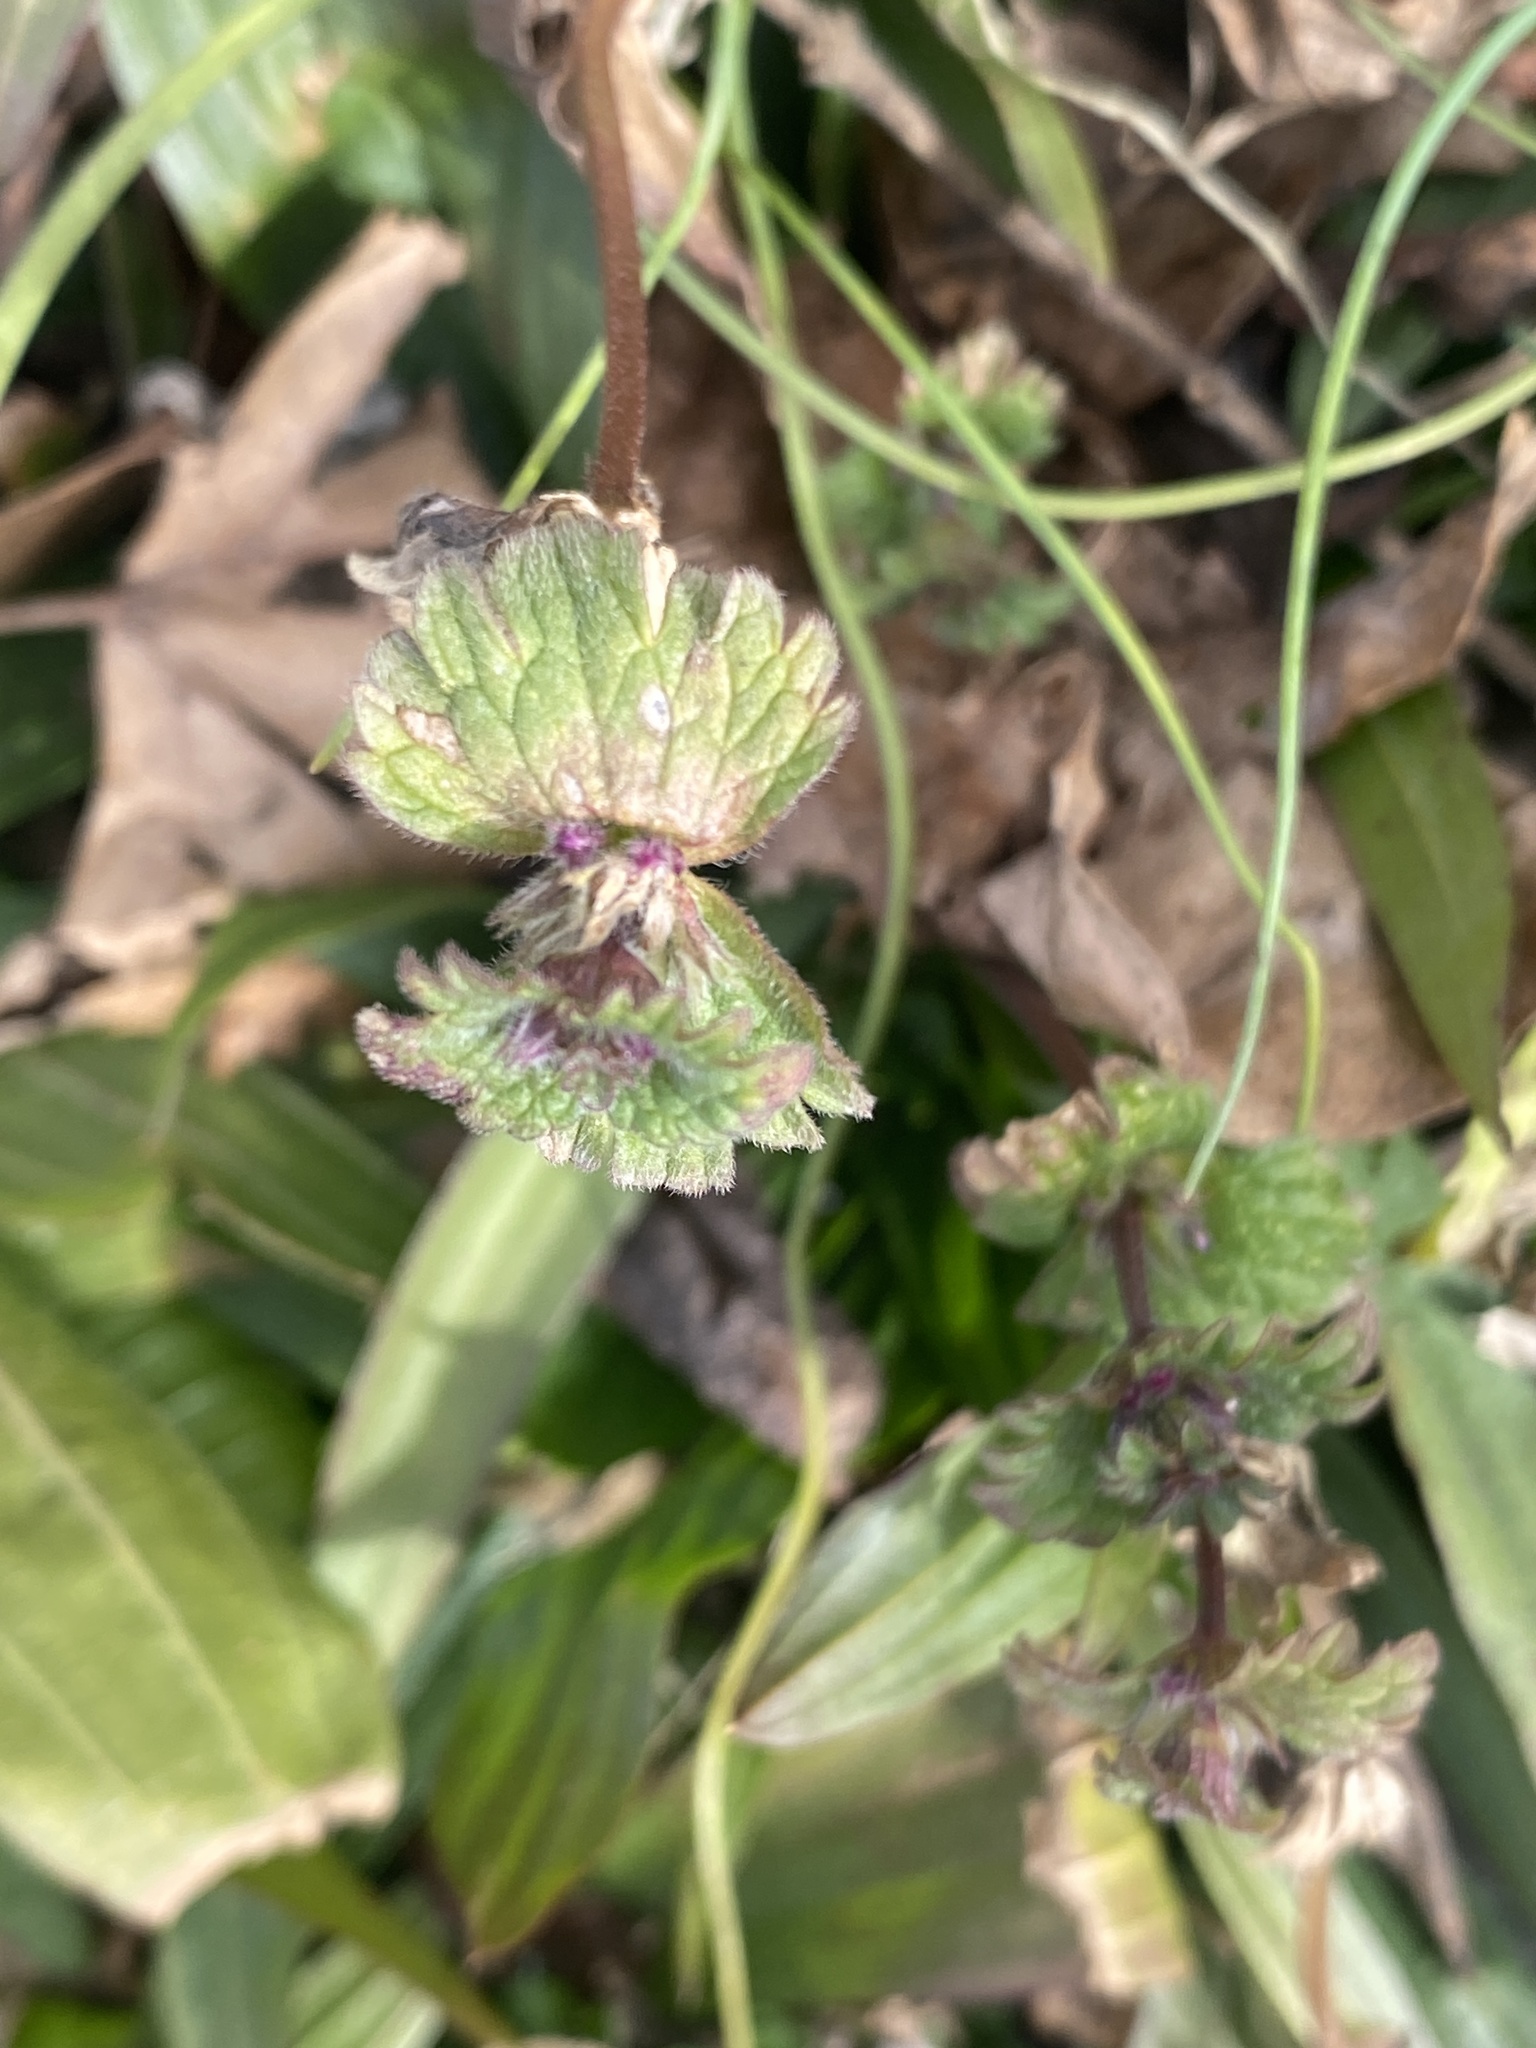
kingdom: Plantae
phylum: Tracheophyta
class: Magnoliopsida
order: Lamiales
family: Lamiaceae
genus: Lamium
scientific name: Lamium amplexicaule
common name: Henbit dead-nettle
